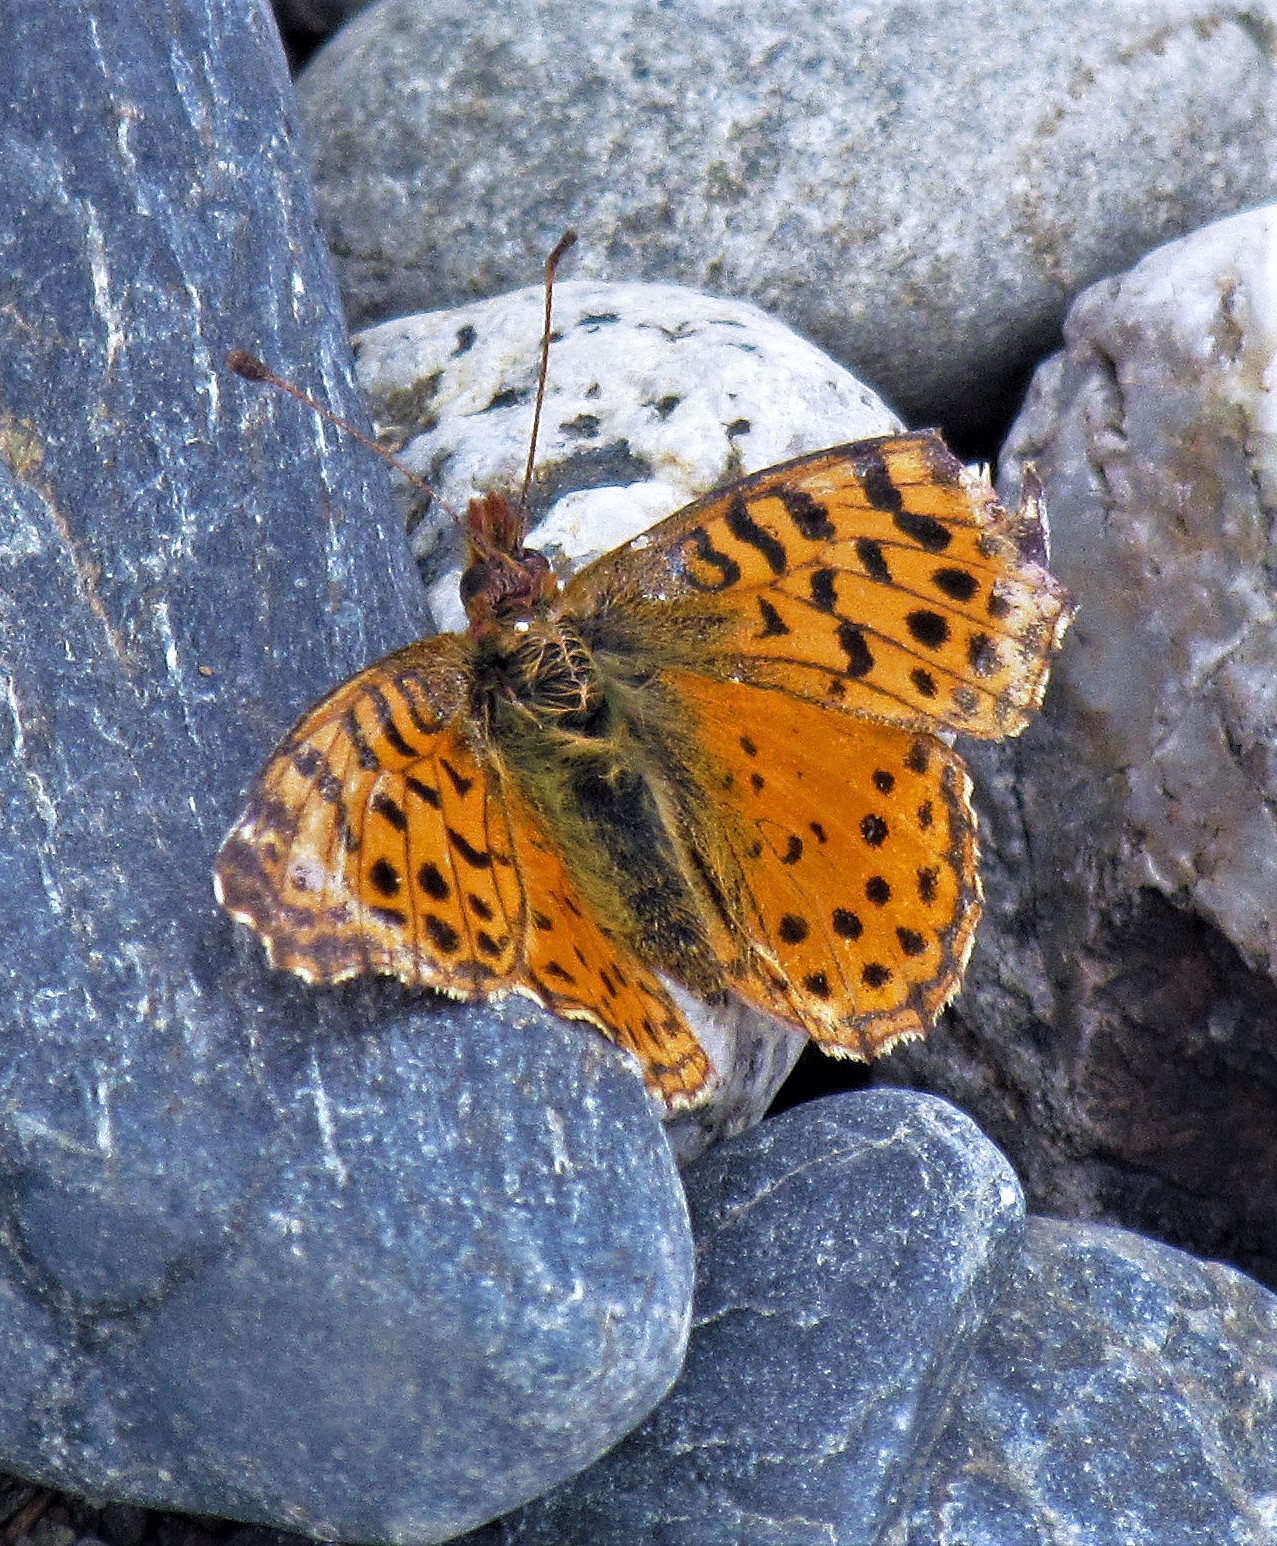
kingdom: Animalia
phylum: Arthropoda
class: Insecta
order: Lepidoptera
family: Nymphalidae
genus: Issoria
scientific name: Issoria Yramea cytheris
